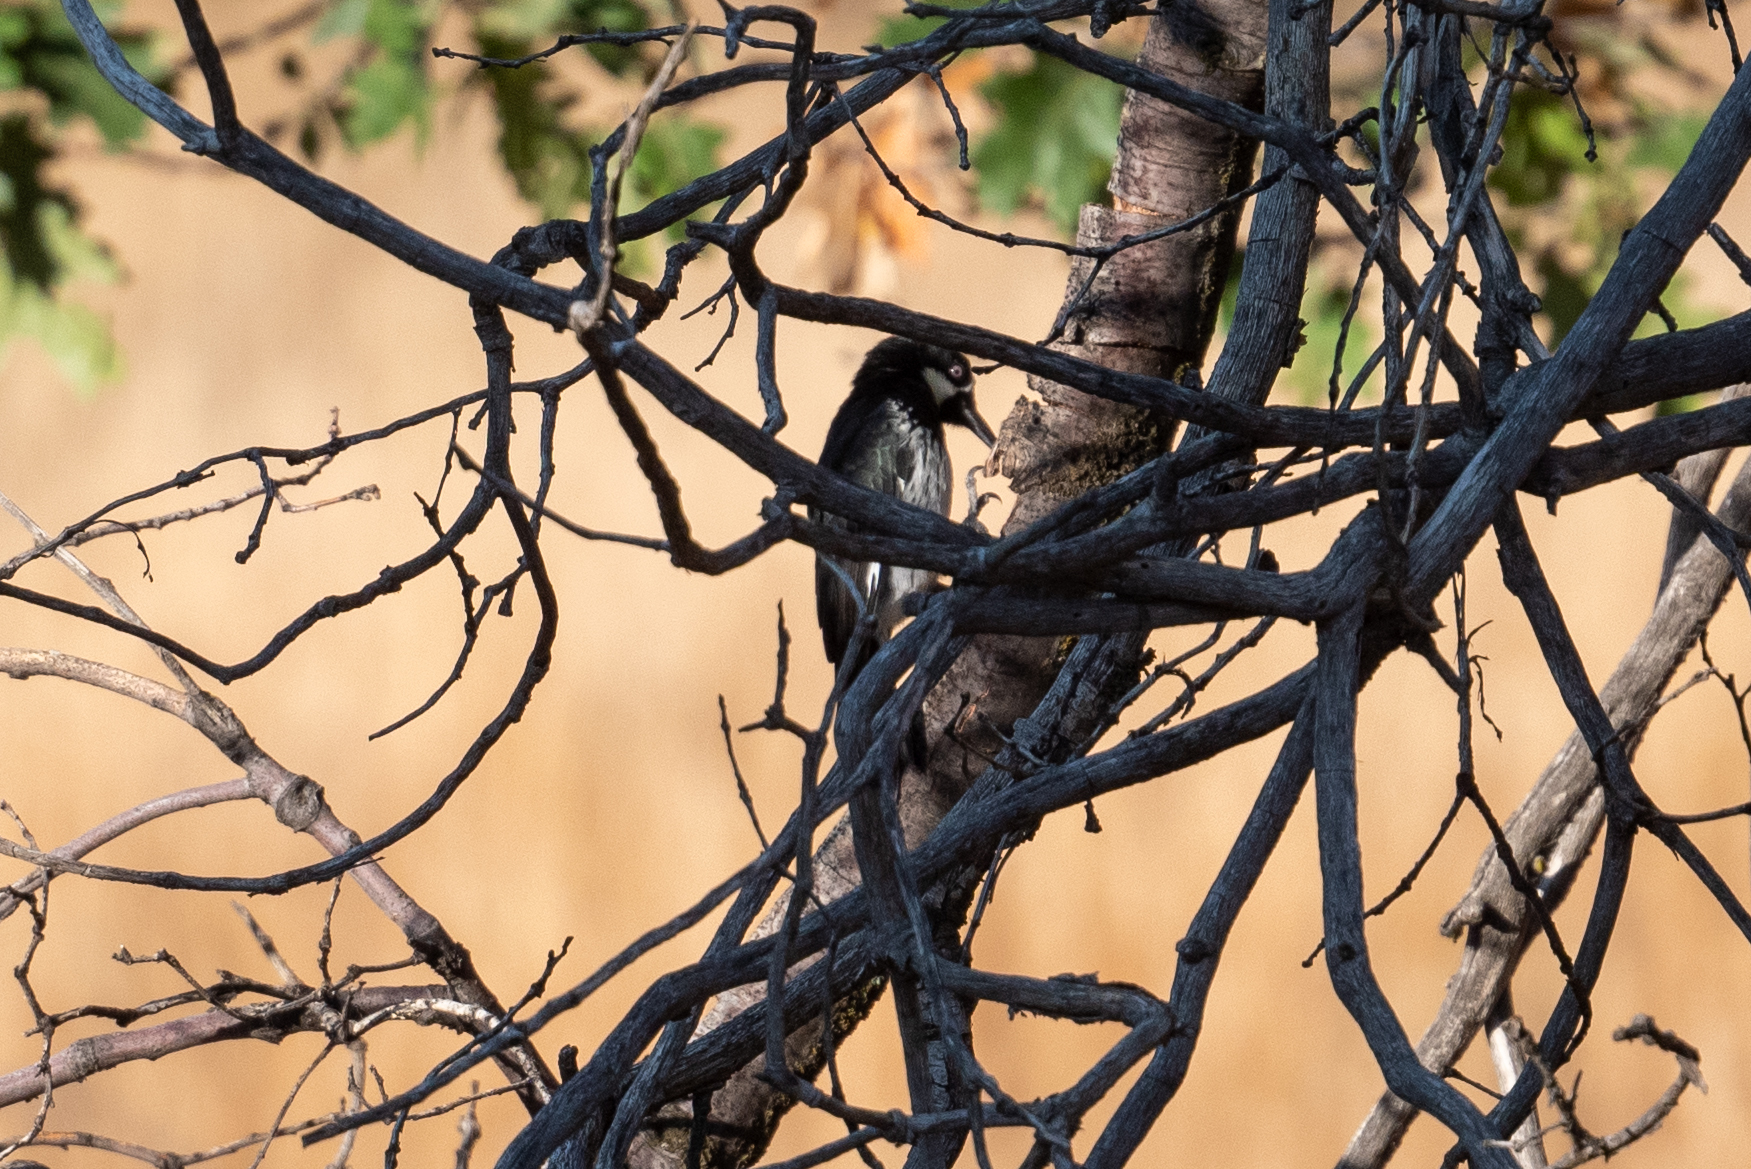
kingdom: Animalia
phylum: Chordata
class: Aves
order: Piciformes
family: Picidae
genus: Melanerpes
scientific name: Melanerpes formicivorus
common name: Acorn woodpecker
